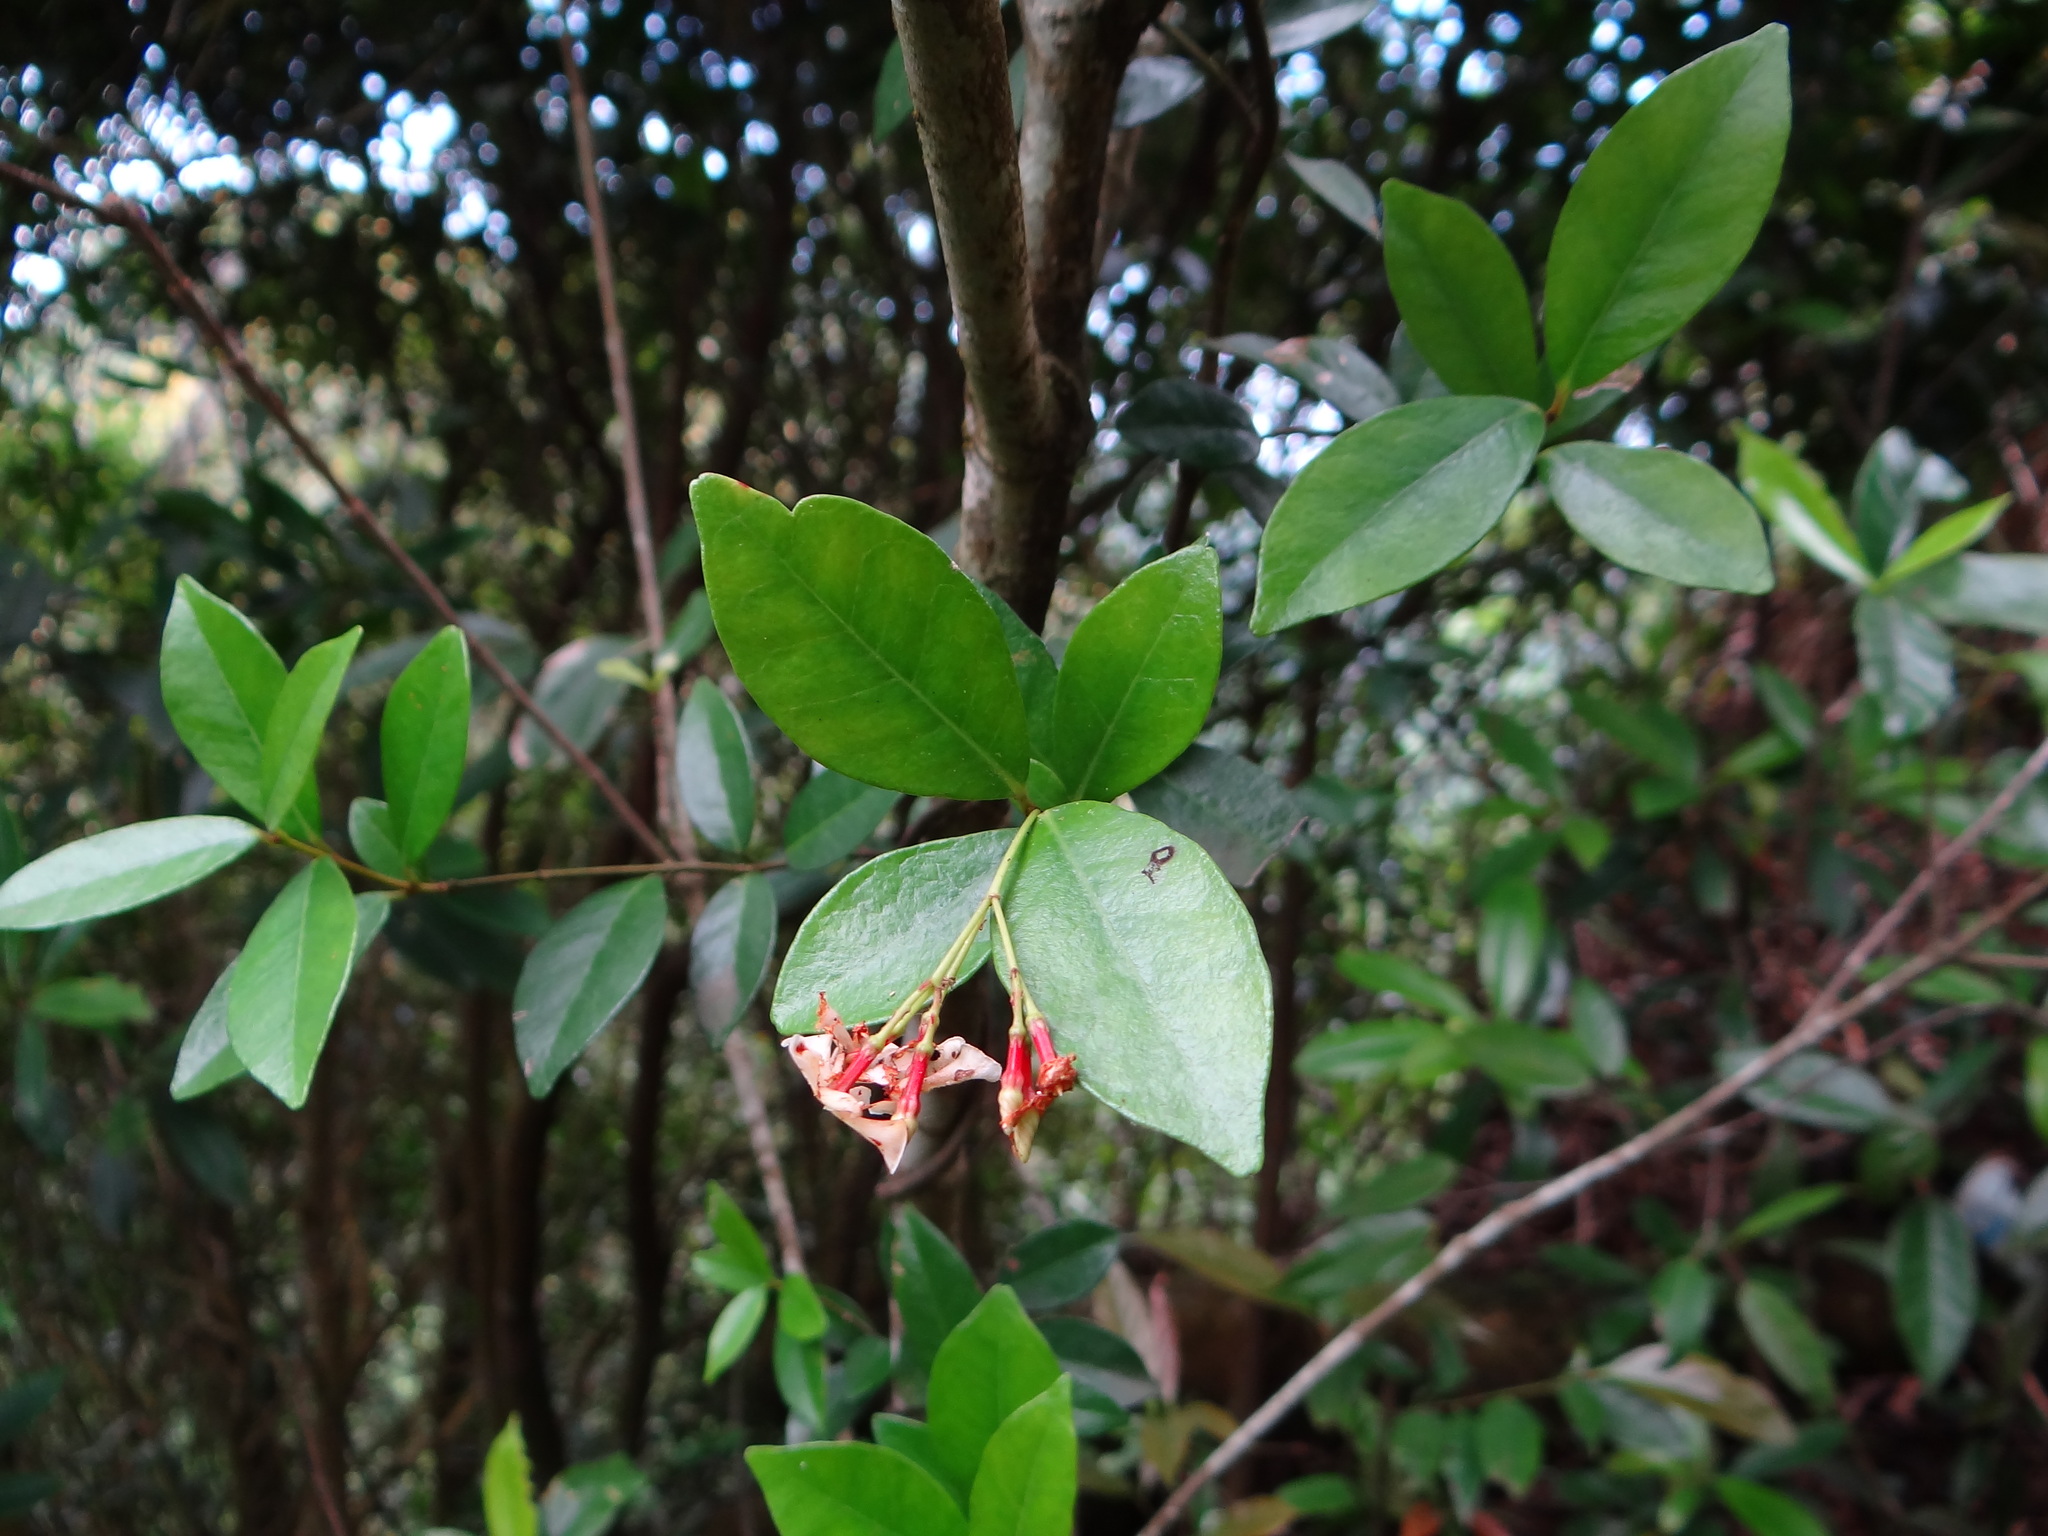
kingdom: Plantae
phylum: Tracheophyta
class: Magnoliopsida
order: Gentianales
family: Apocynaceae
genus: Trachelospermum
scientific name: Trachelospermum asiaticum
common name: Asiatic jasmine
